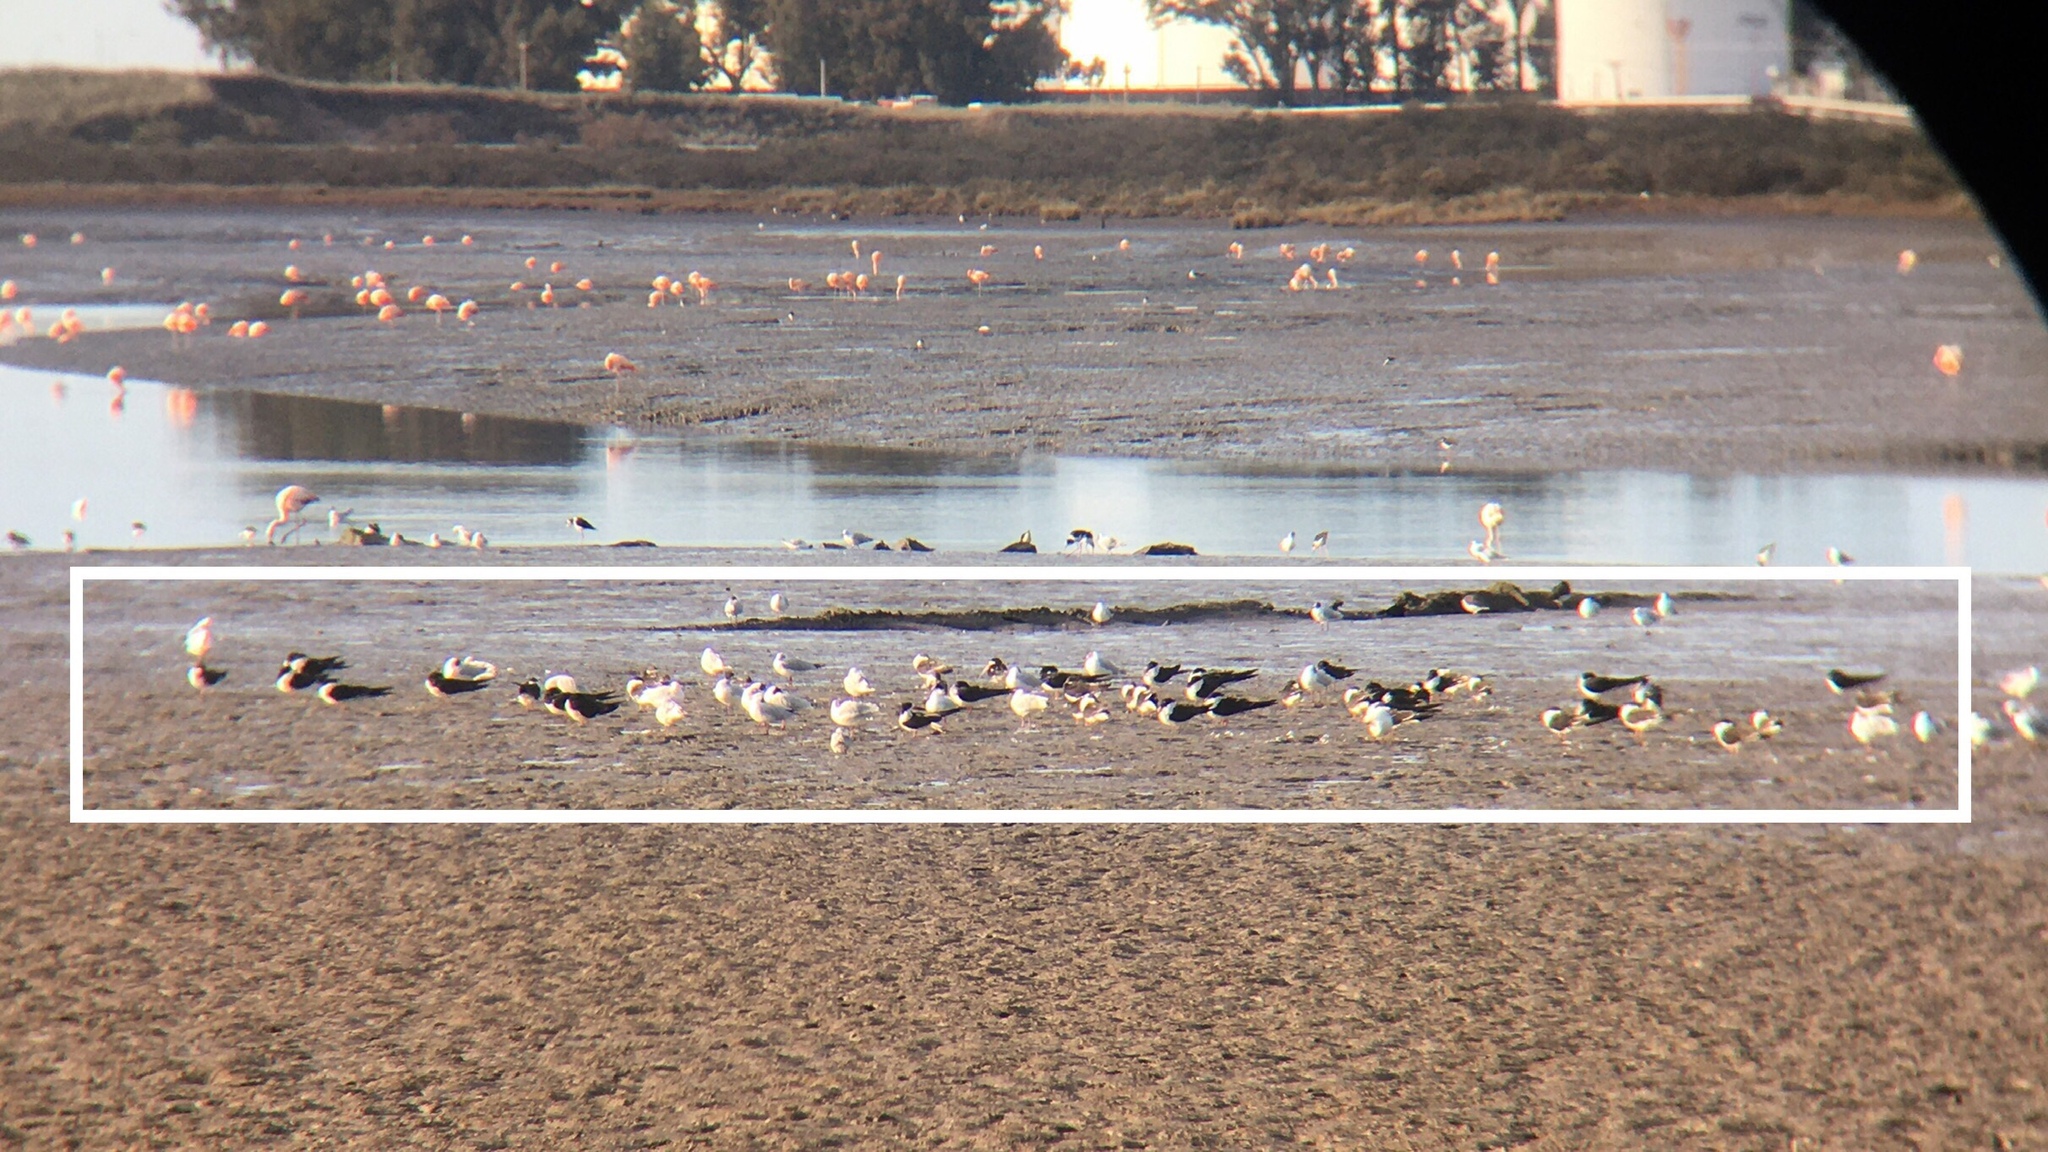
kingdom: Animalia
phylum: Chordata
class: Aves
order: Charadriiformes
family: Laridae
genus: Rynchops
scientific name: Rynchops niger
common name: Black skimmer
